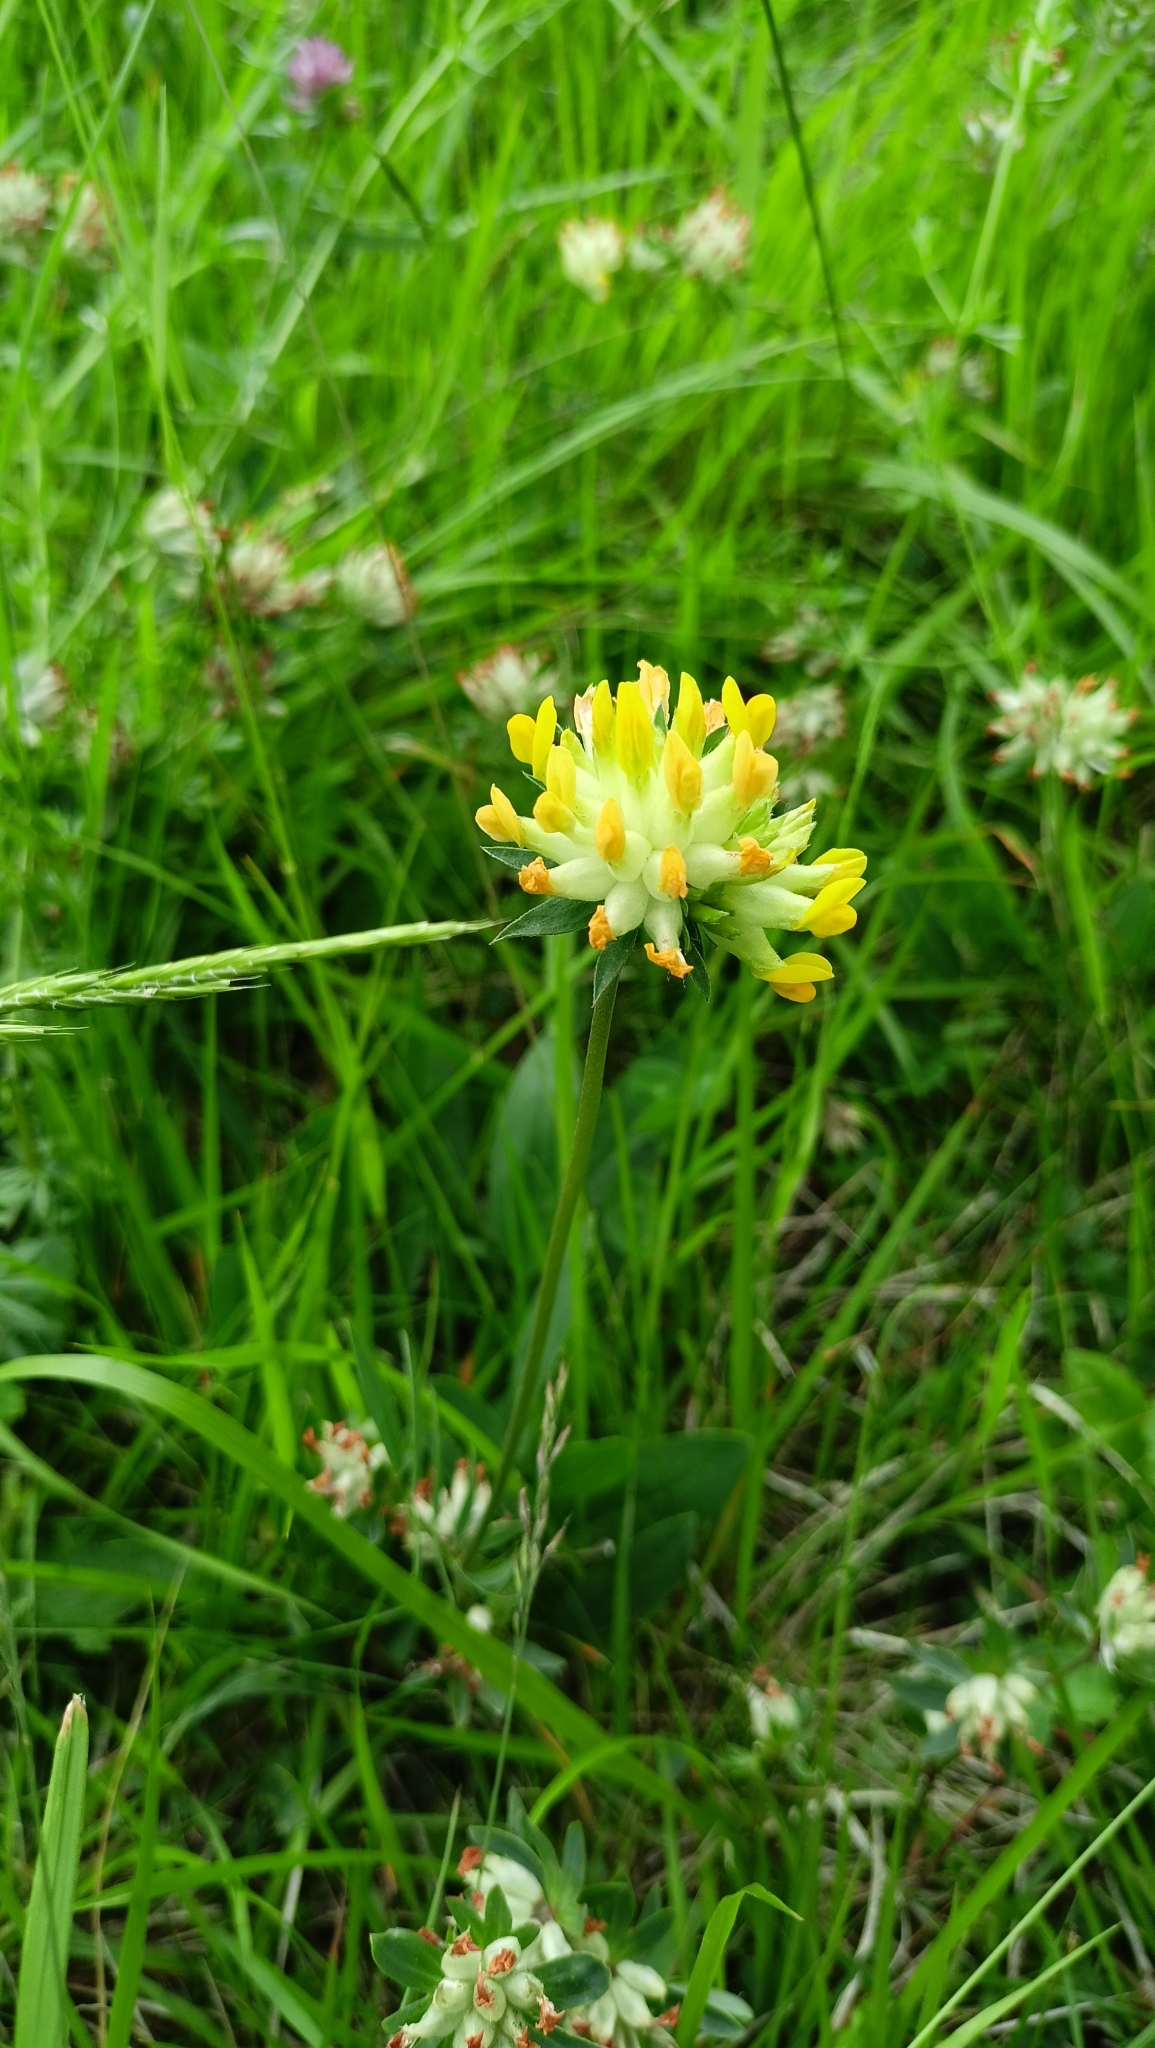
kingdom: Plantae
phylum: Tracheophyta
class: Magnoliopsida
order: Fabales
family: Fabaceae
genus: Anthyllis
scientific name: Anthyllis vulneraria
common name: Kidney vetch
